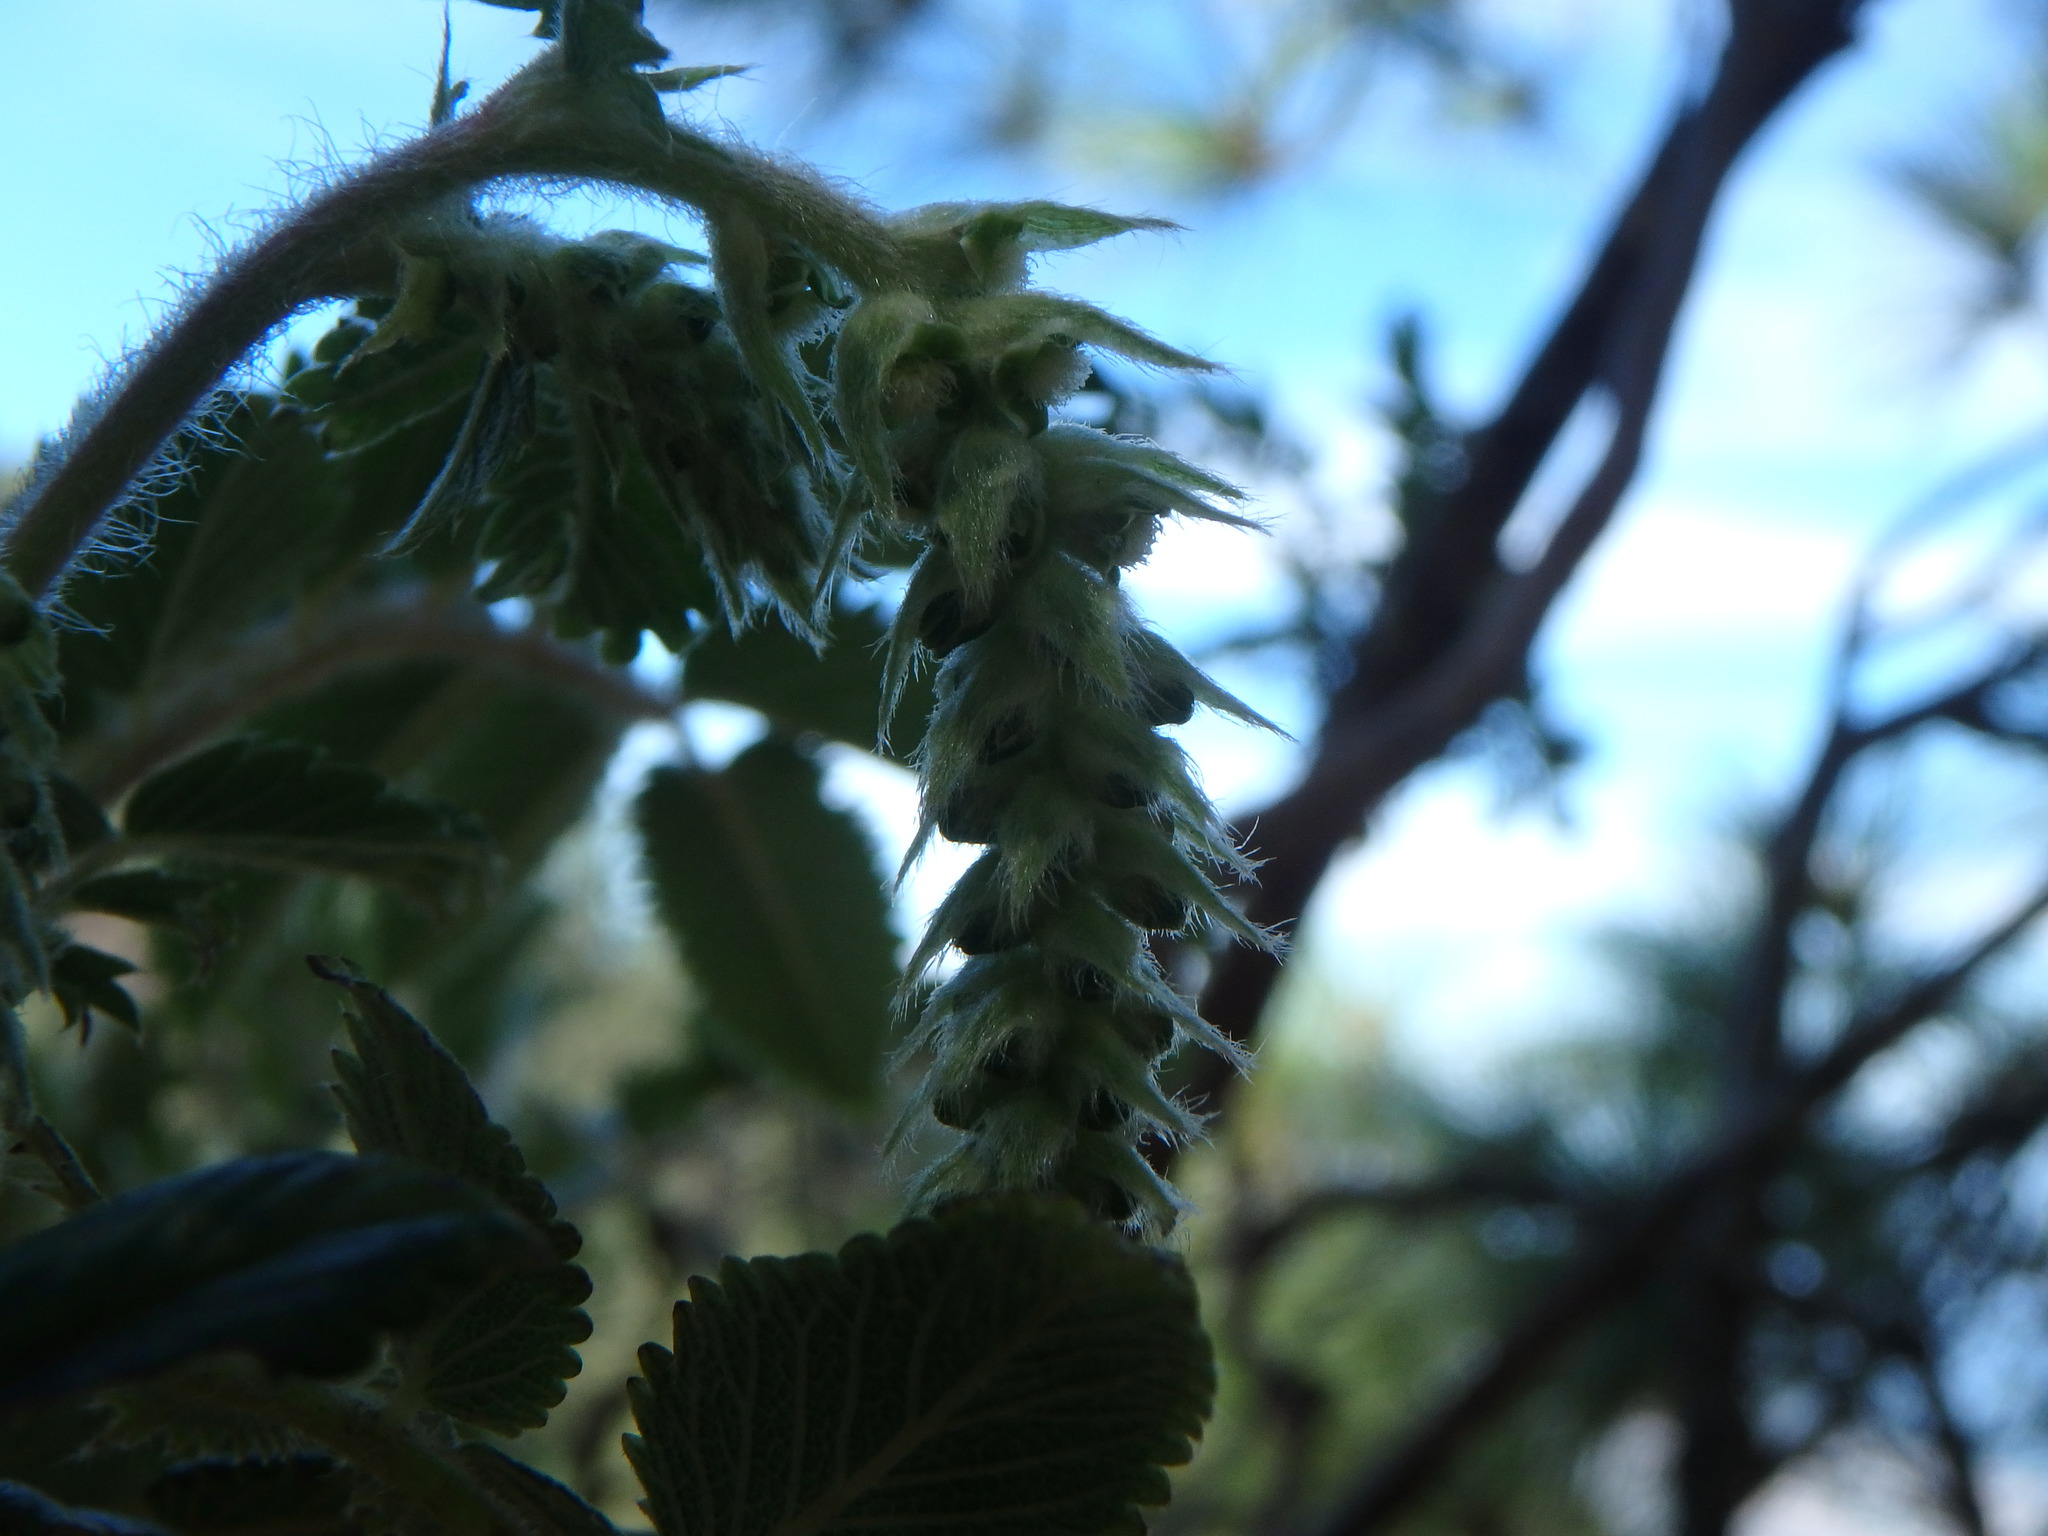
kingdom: Plantae
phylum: Tracheophyta
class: Magnoliopsida
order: Rosales
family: Rosaceae
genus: Bencomia
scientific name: Bencomia caudata
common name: Bencomia
